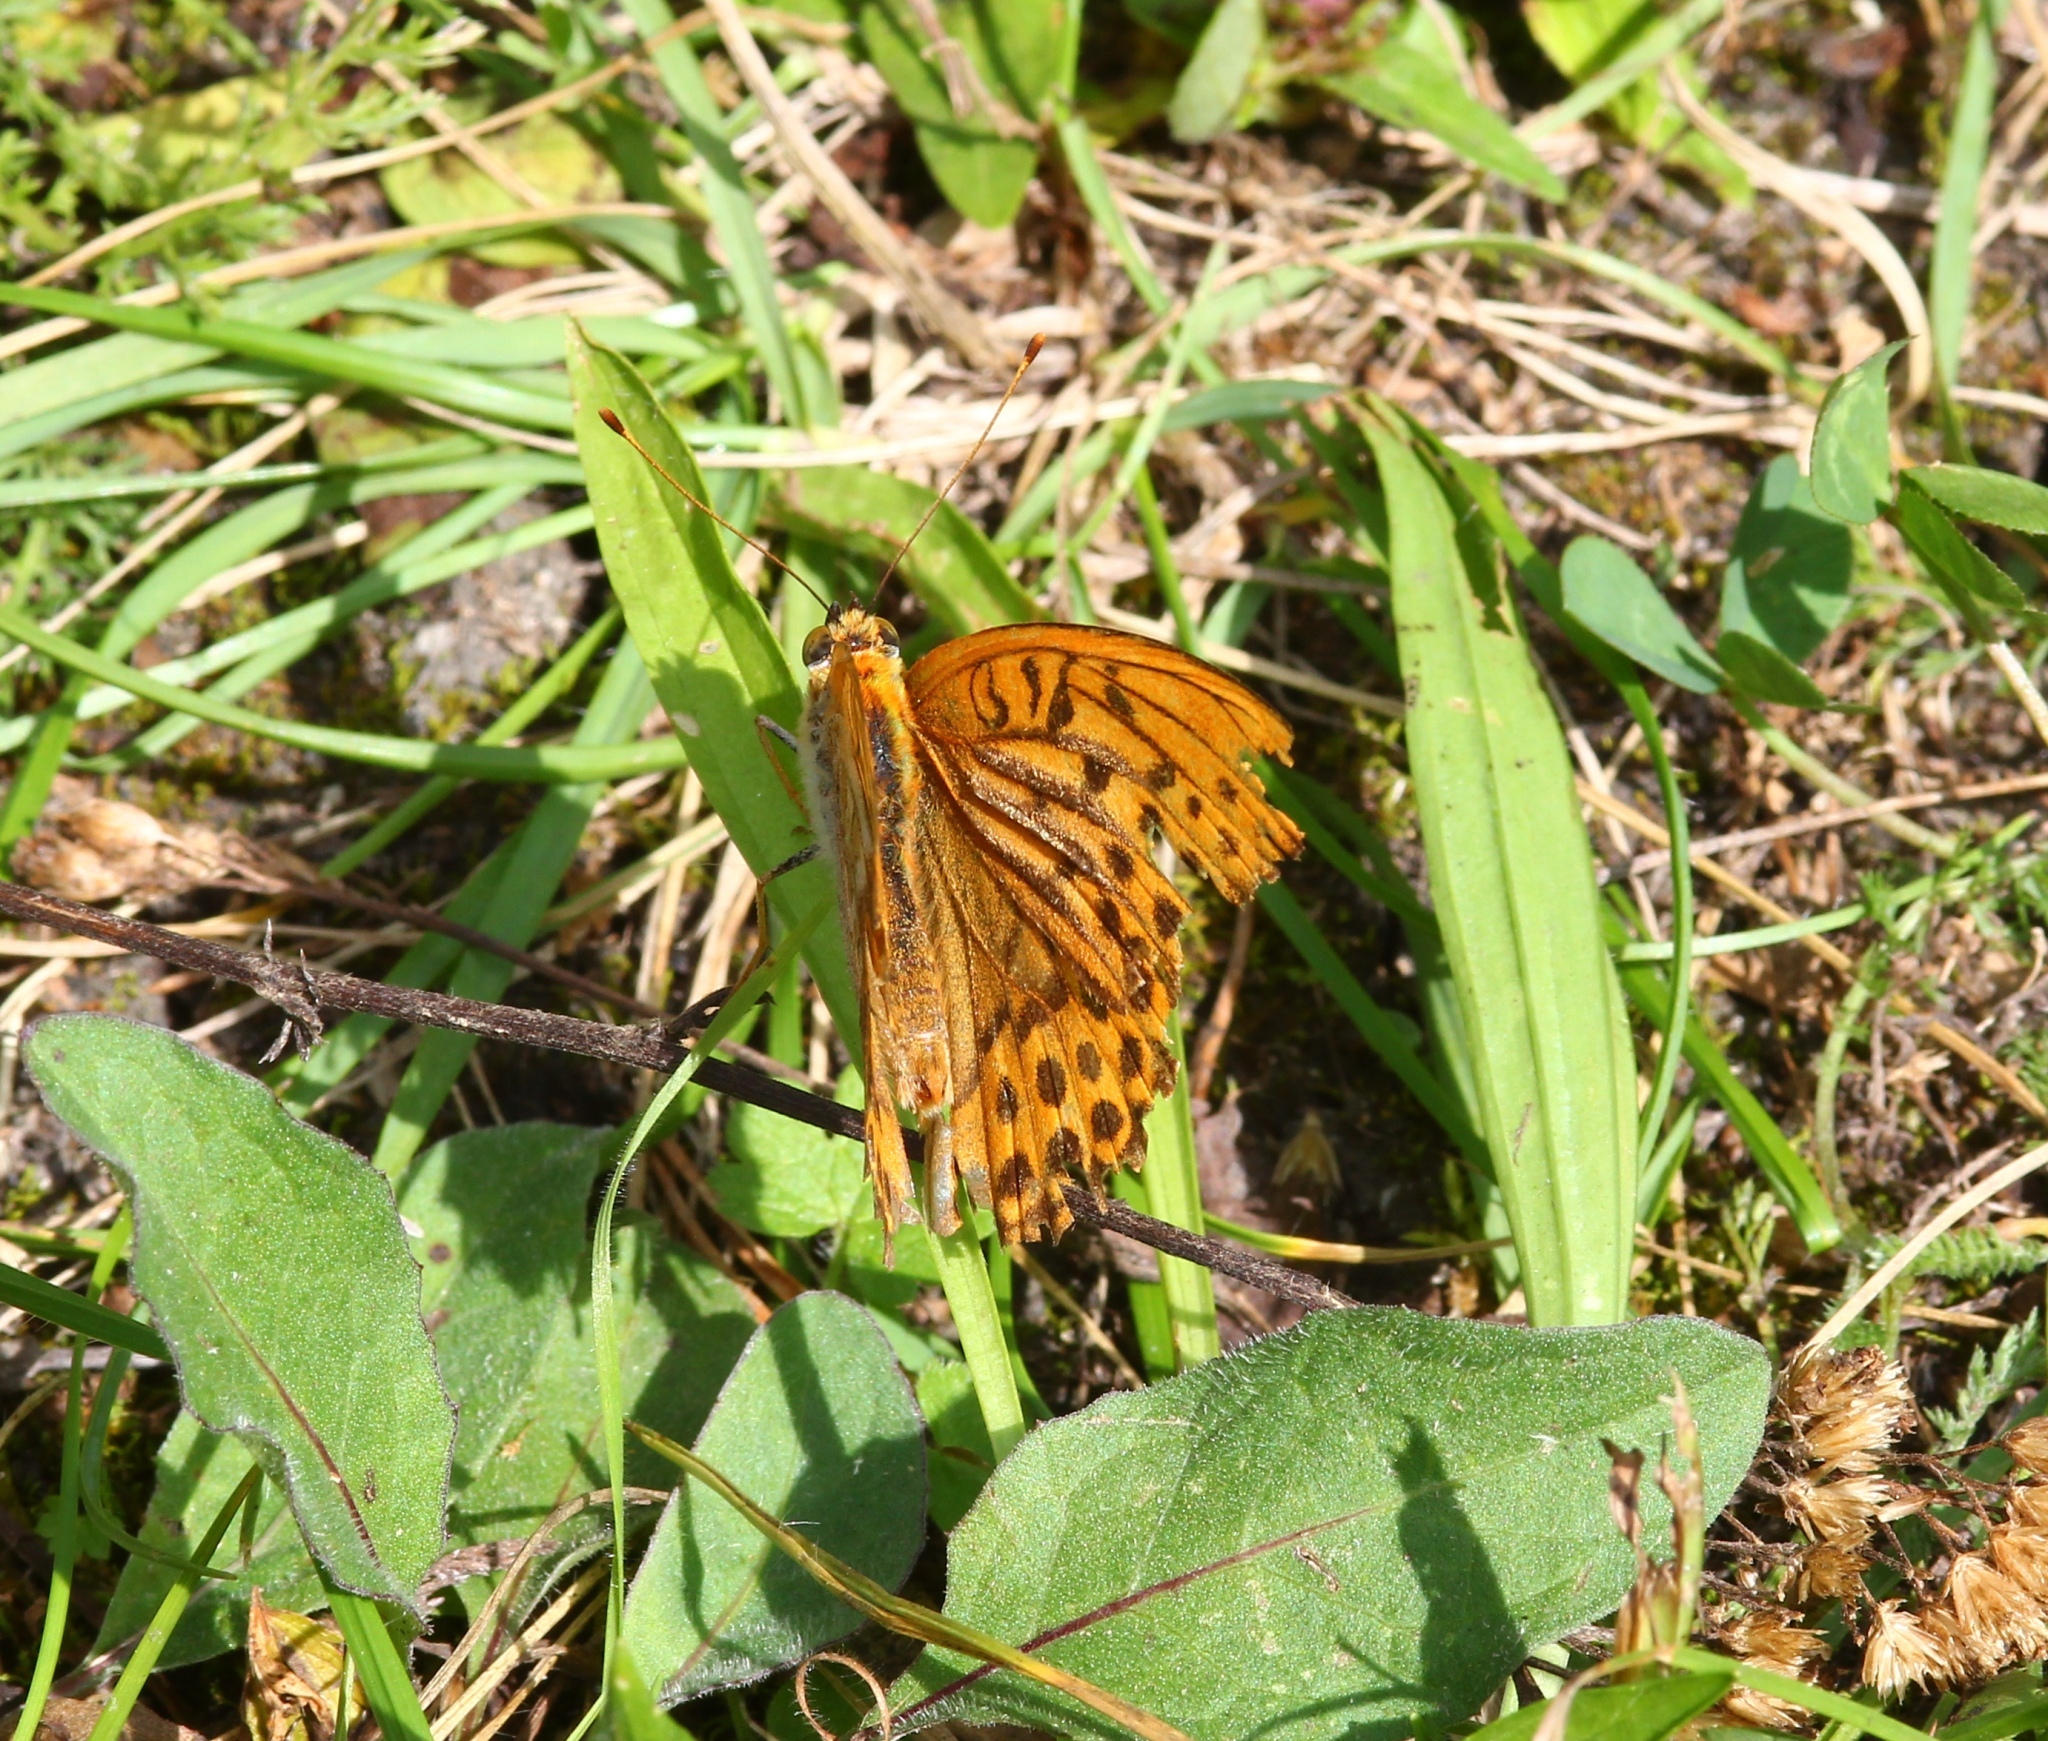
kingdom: Animalia
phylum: Arthropoda
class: Insecta
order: Lepidoptera
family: Nymphalidae
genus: Argynnis
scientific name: Argynnis paphia
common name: Silver-washed fritillary
